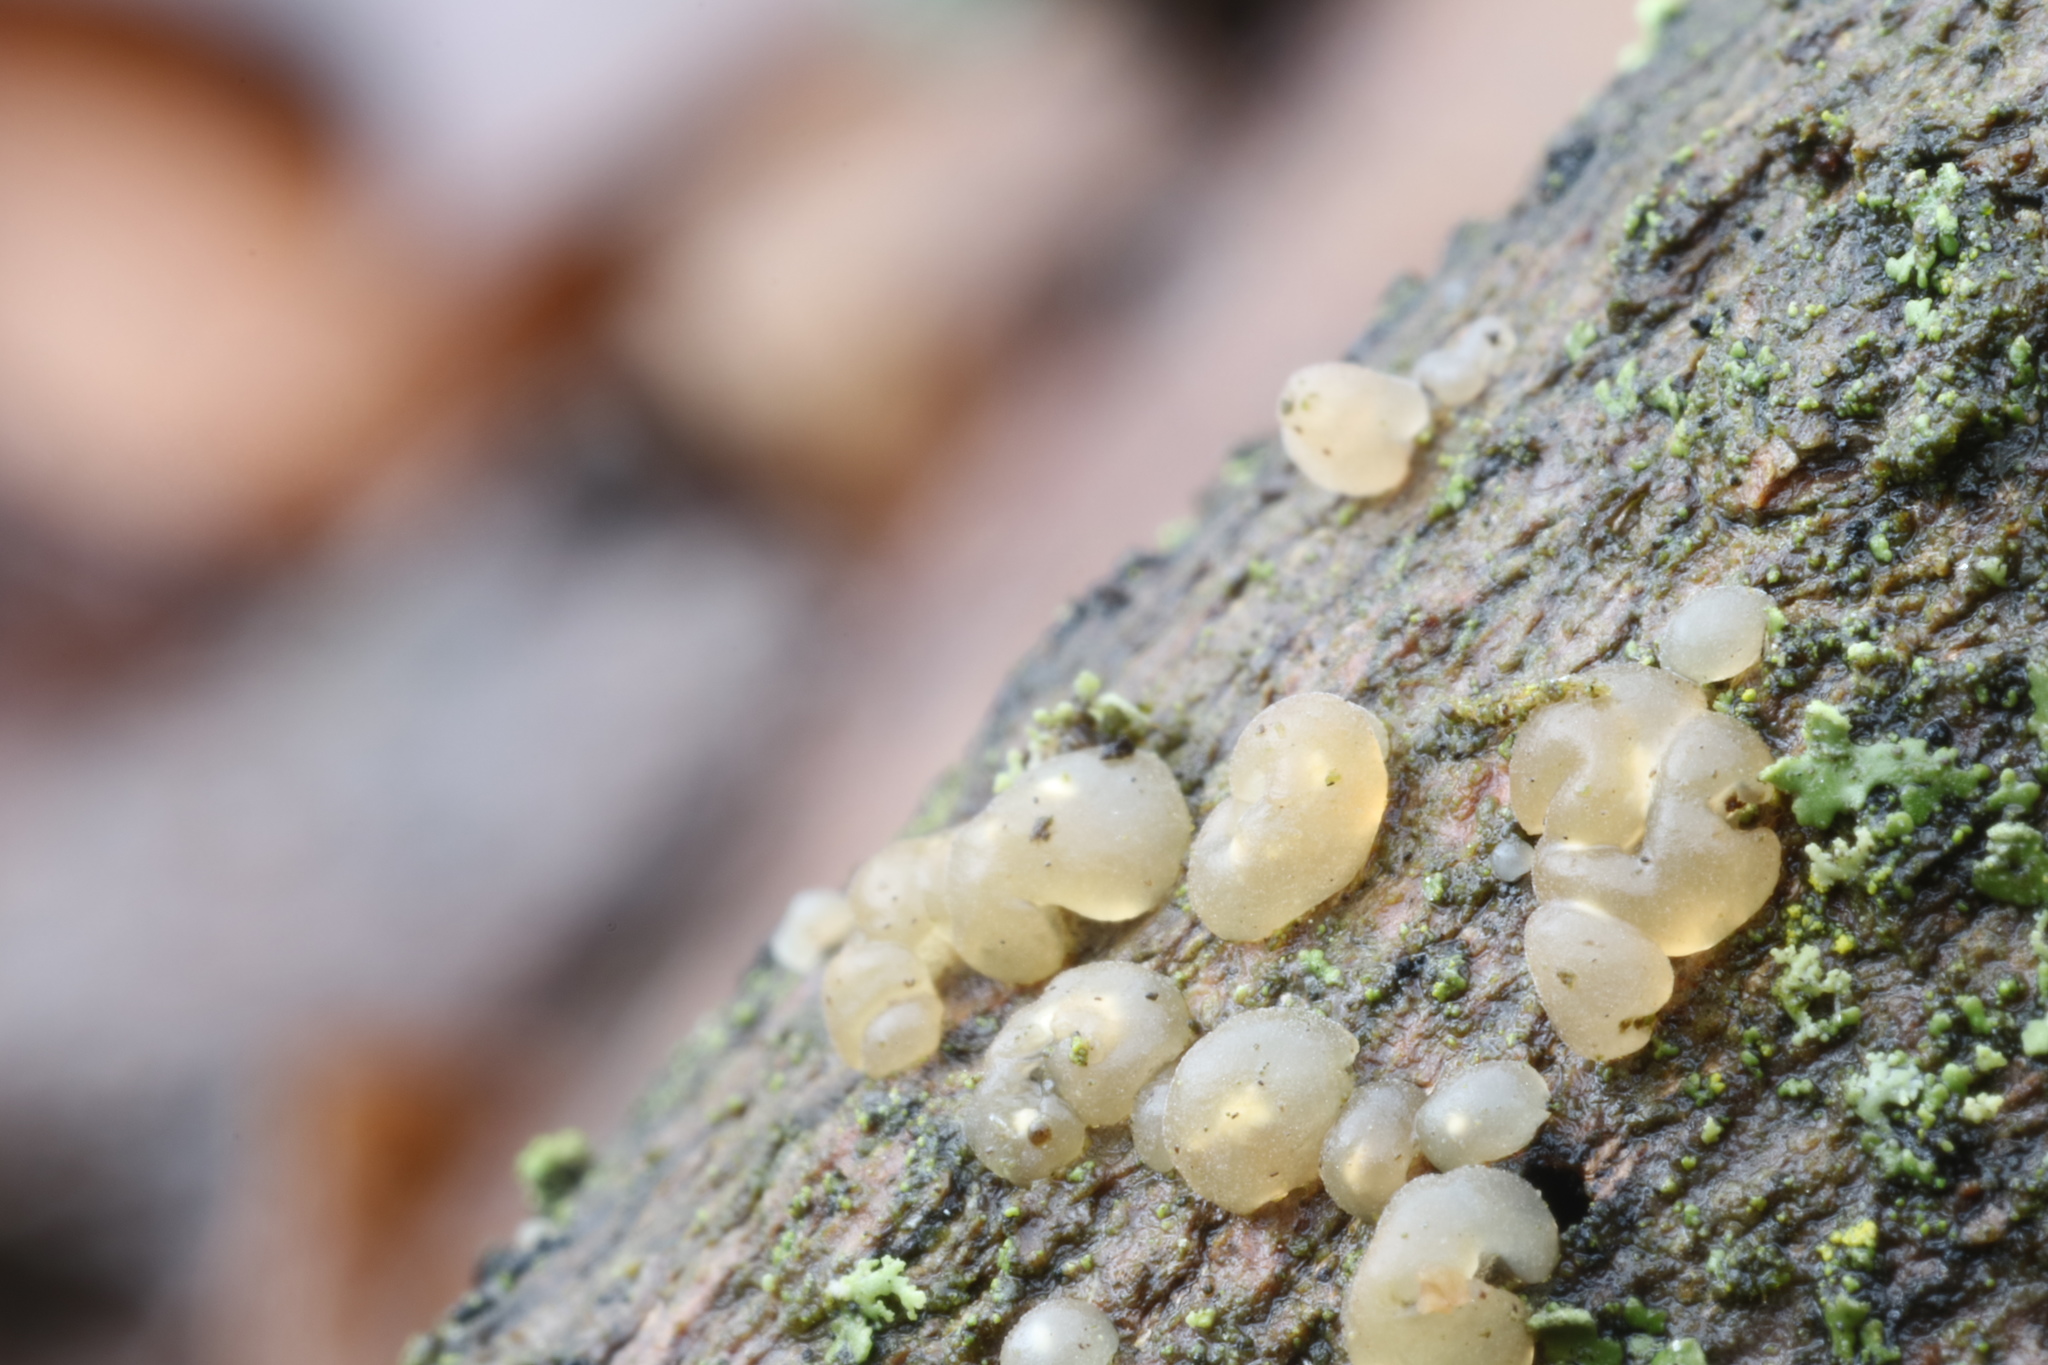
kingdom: Fungi
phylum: Basidiomycota
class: Agaricomycetes
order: Auriculariales
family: Hyaloriaceae
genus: Myxarium
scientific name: Myxarium nucleatum
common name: Crystal brain fungus
